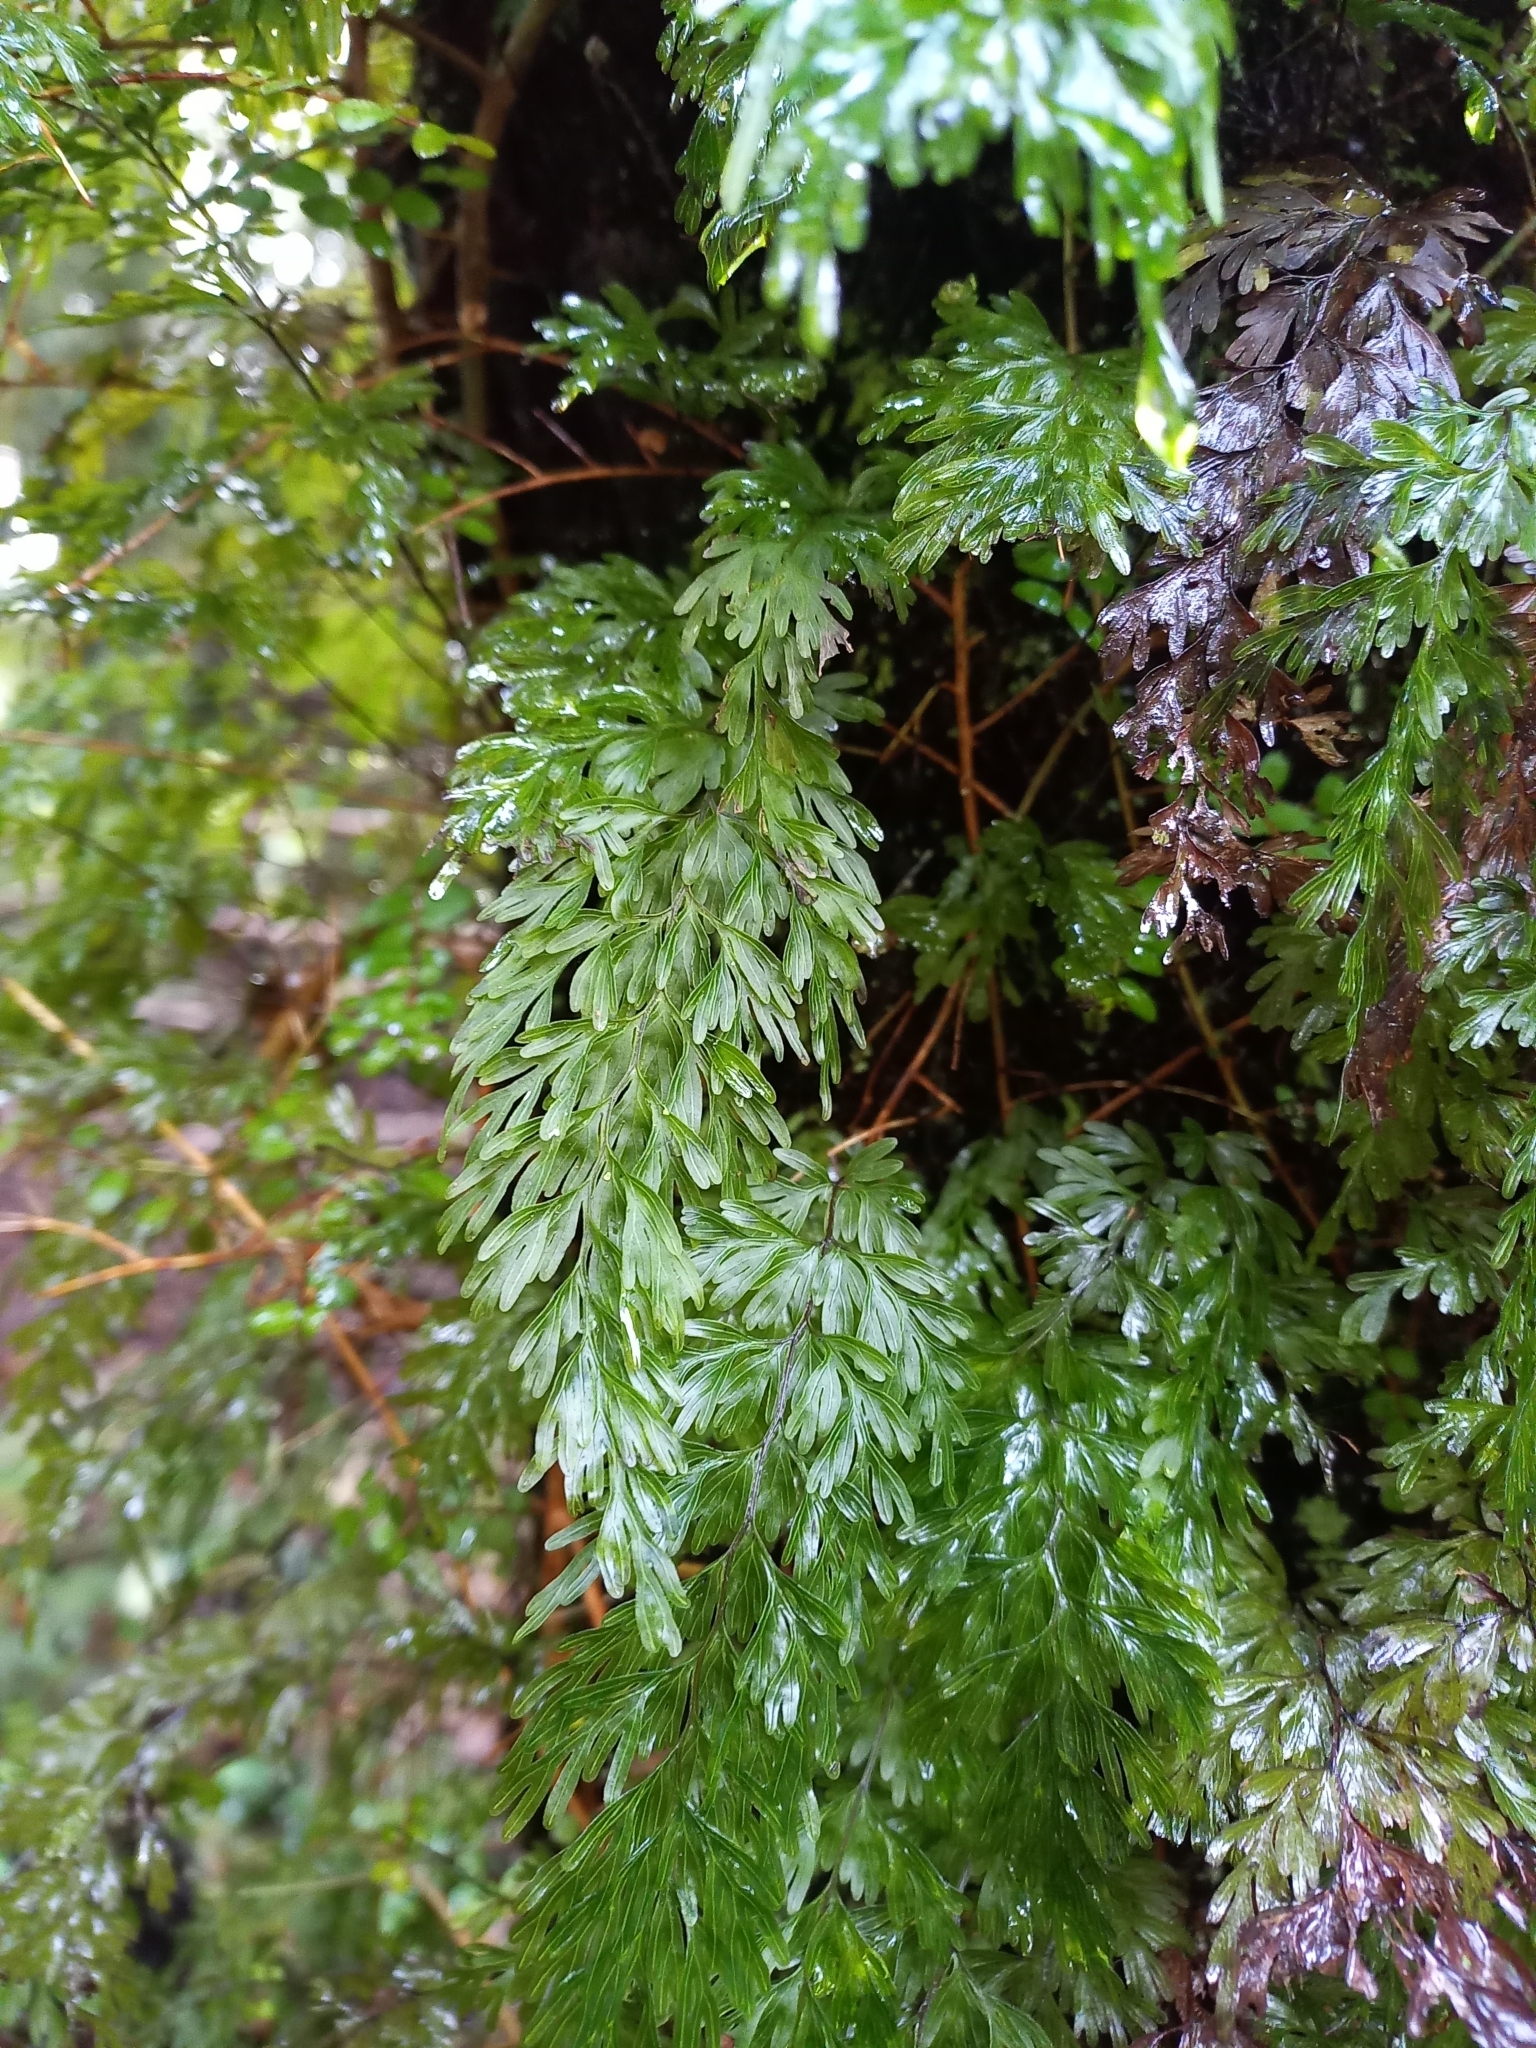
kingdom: Plantae
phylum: Tracheophyta
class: Polypodiopsida
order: Hymenophyllales
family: Hymenophyllaceae
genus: Hymenophyllum
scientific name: Hymenophyllum demissum
